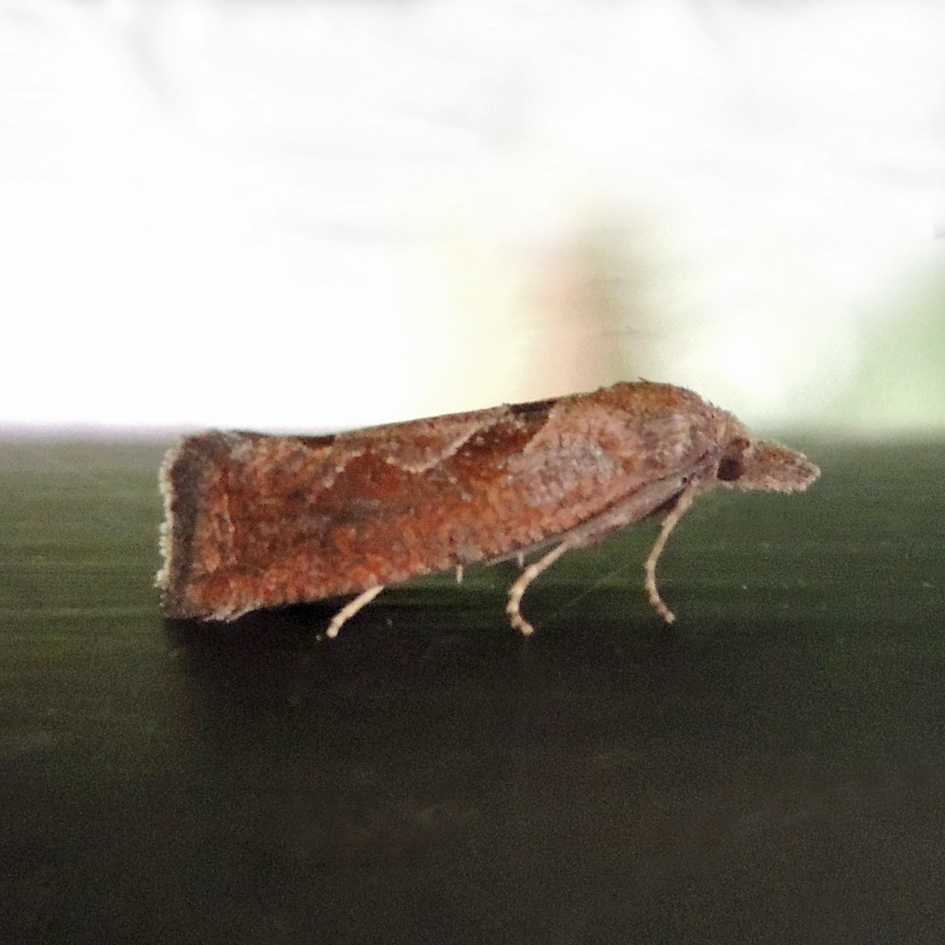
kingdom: Animalia
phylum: Arthropoda
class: Insecta
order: Lepidoptera
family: Tortricidae
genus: Pelochrista
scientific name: Pelochrista similiana
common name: Similar eucosma
